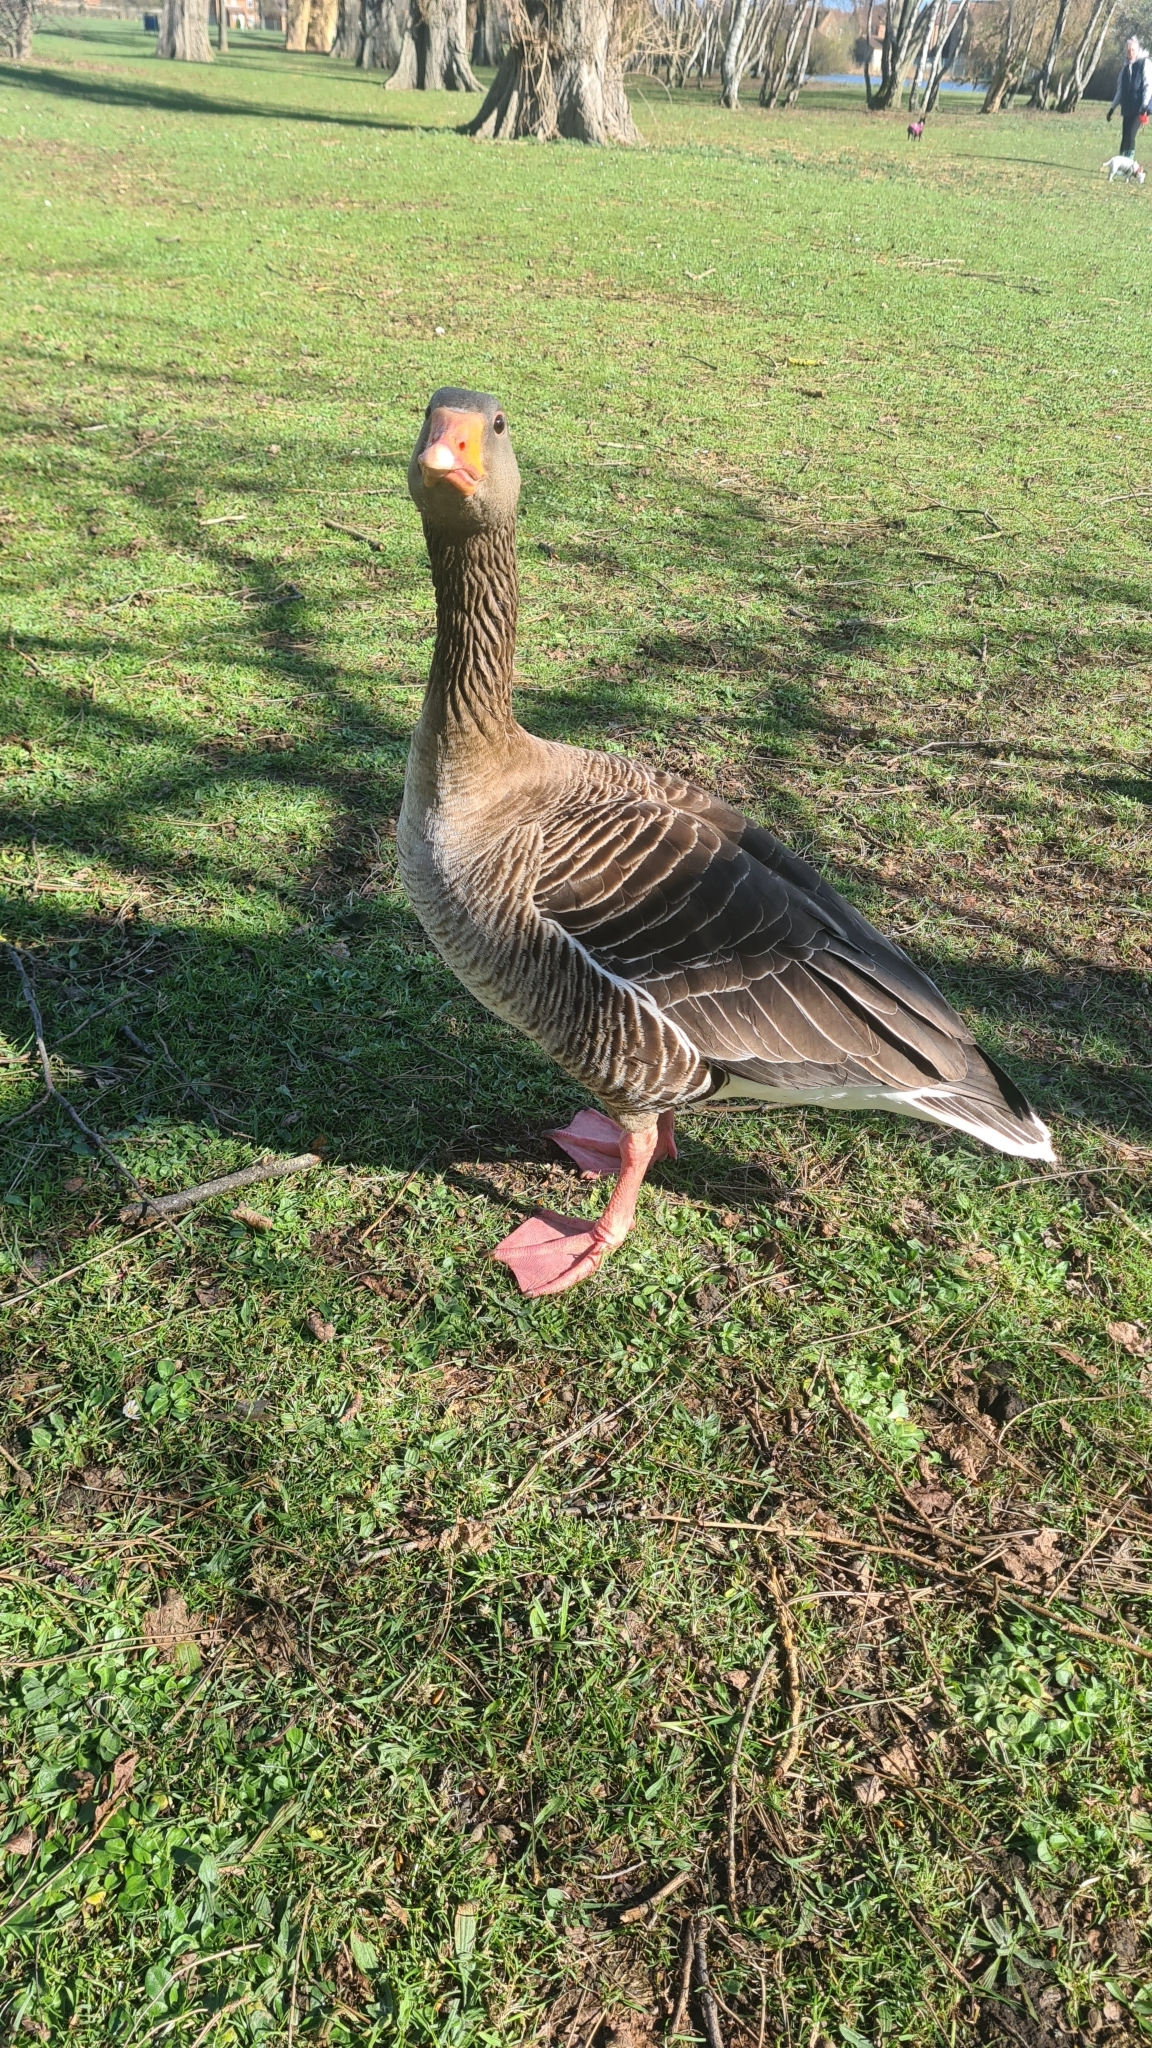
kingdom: Animalia
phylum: Chordata
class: Aves
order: Anseriformes
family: Anatidae
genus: Anser
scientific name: Anser anser
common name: Greylag goose
